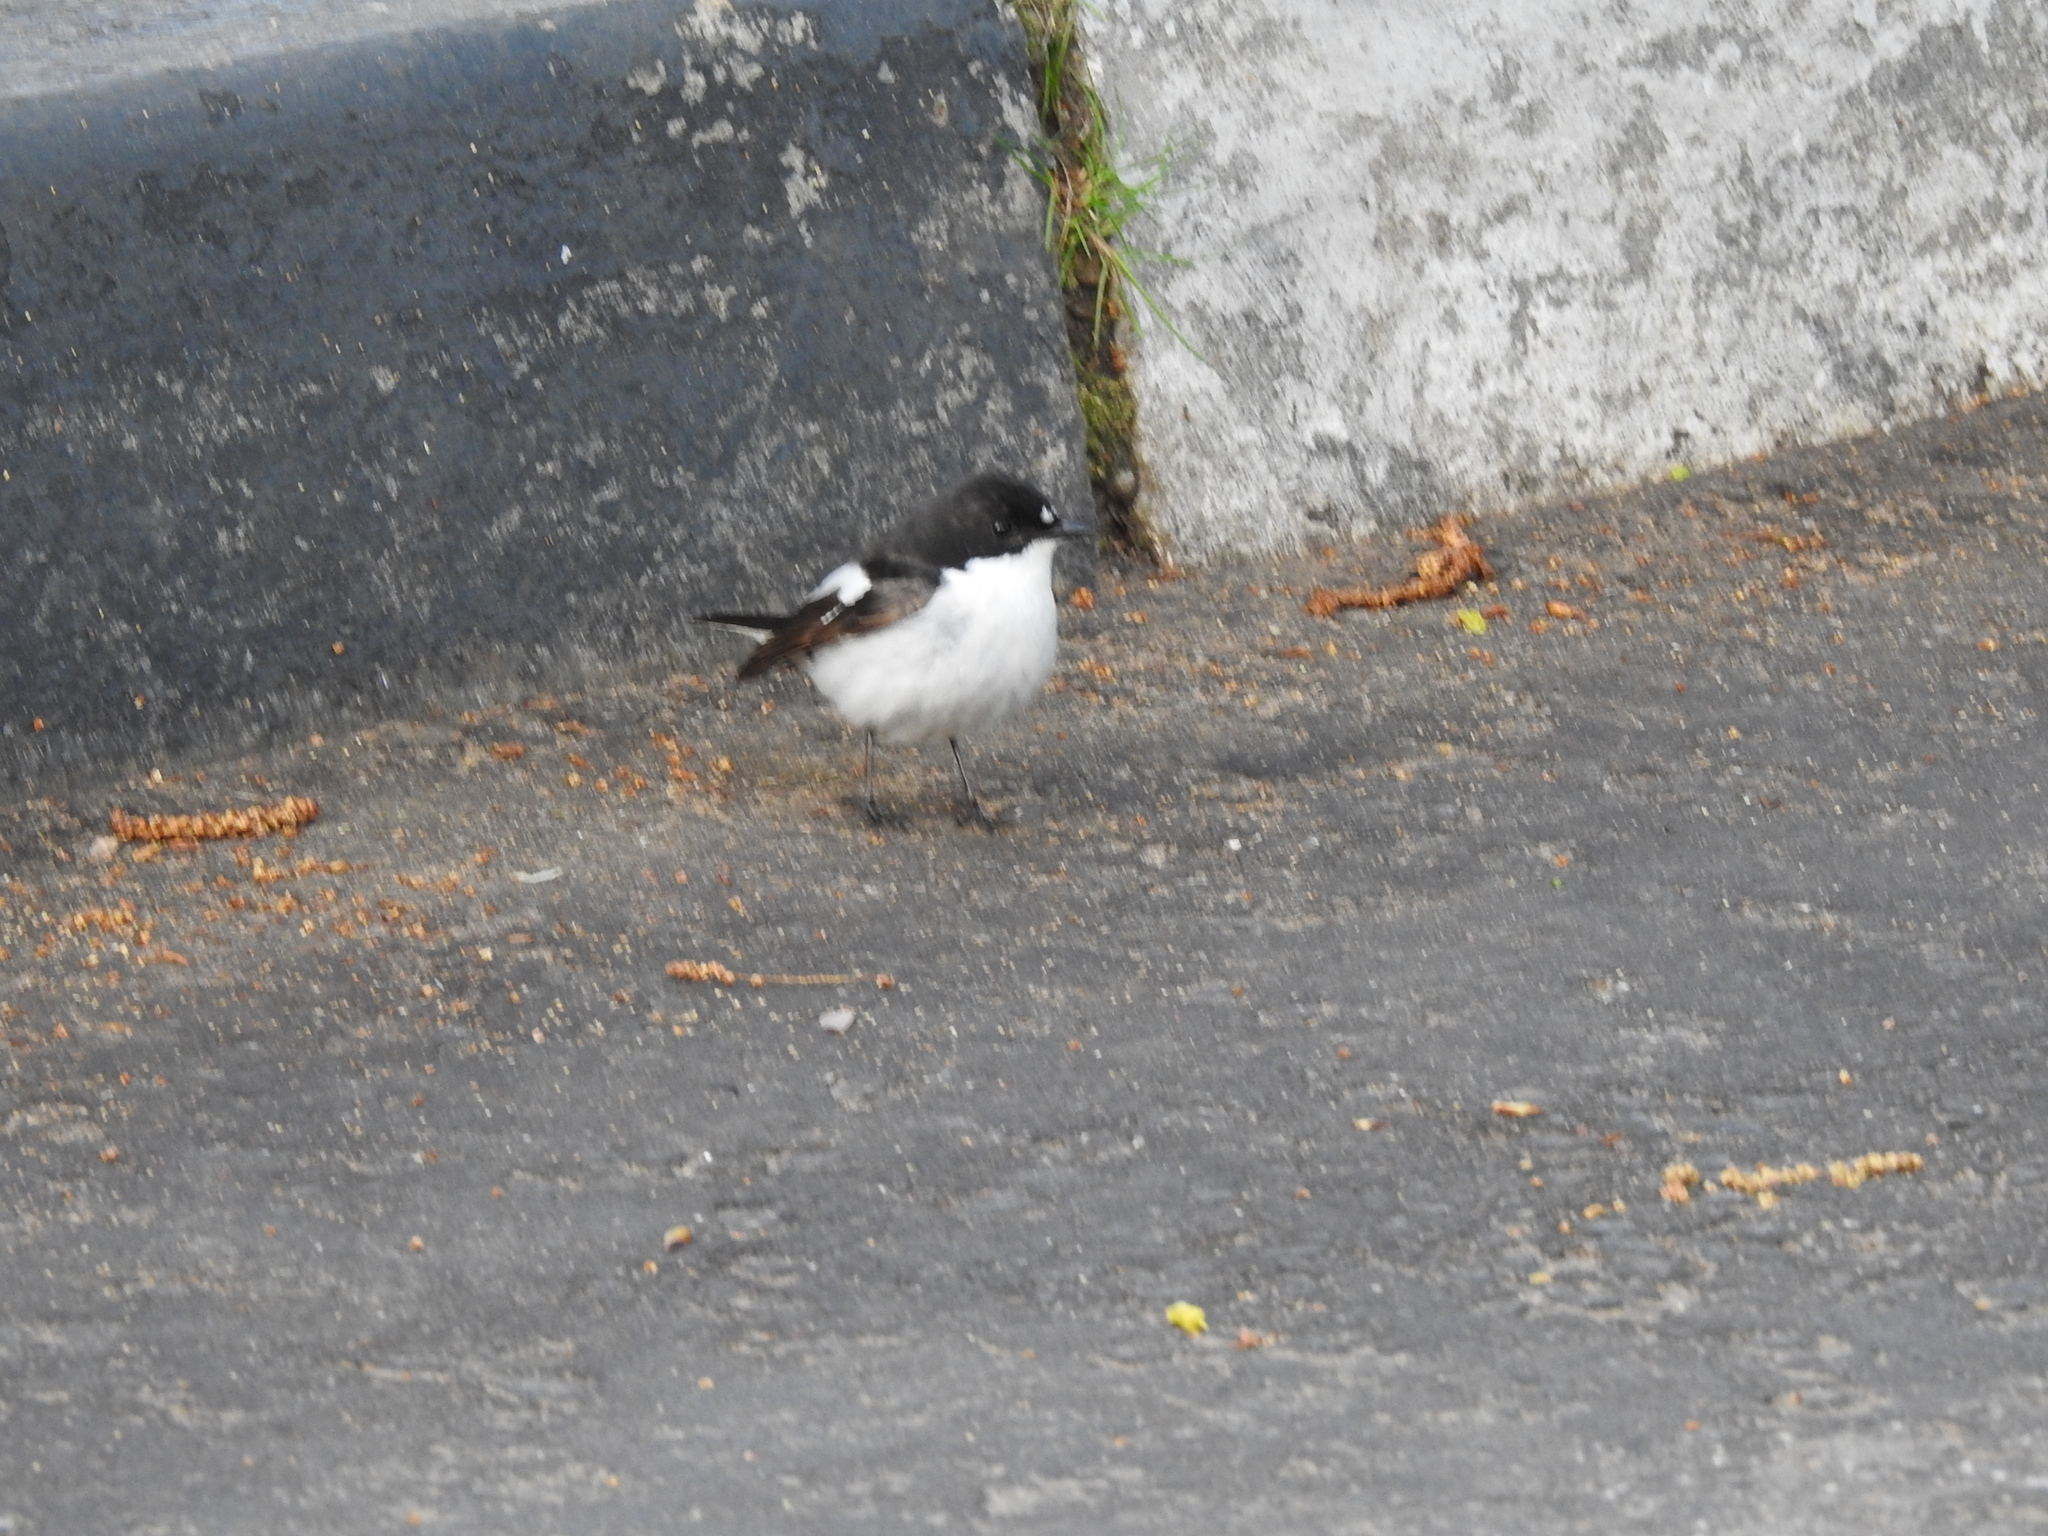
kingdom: Animalia
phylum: Chordata
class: Aves
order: Passeriformes
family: Muscicapidae
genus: Ficedula
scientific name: Ficedula hypoleuca
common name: European pied flycatcher
